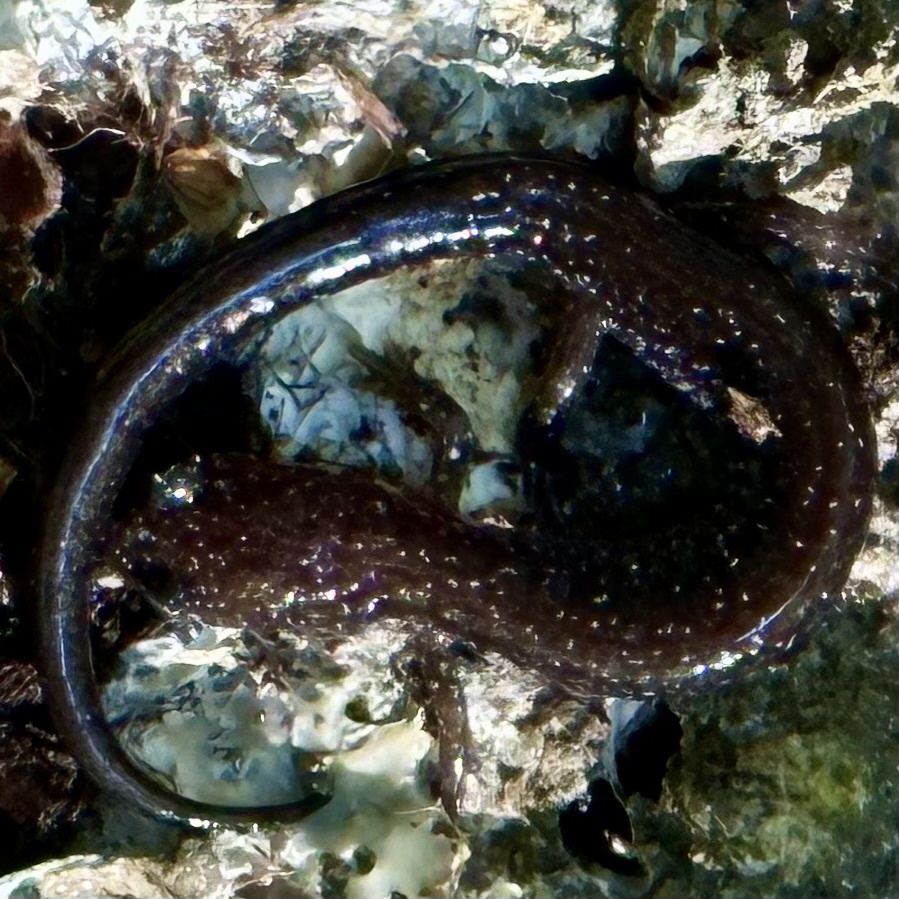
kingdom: Animalia
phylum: Chordata
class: Amphibia
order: Caudata
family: Plethodontidae
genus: Plethodon
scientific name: Plethodon cinereus
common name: Redback salamander
